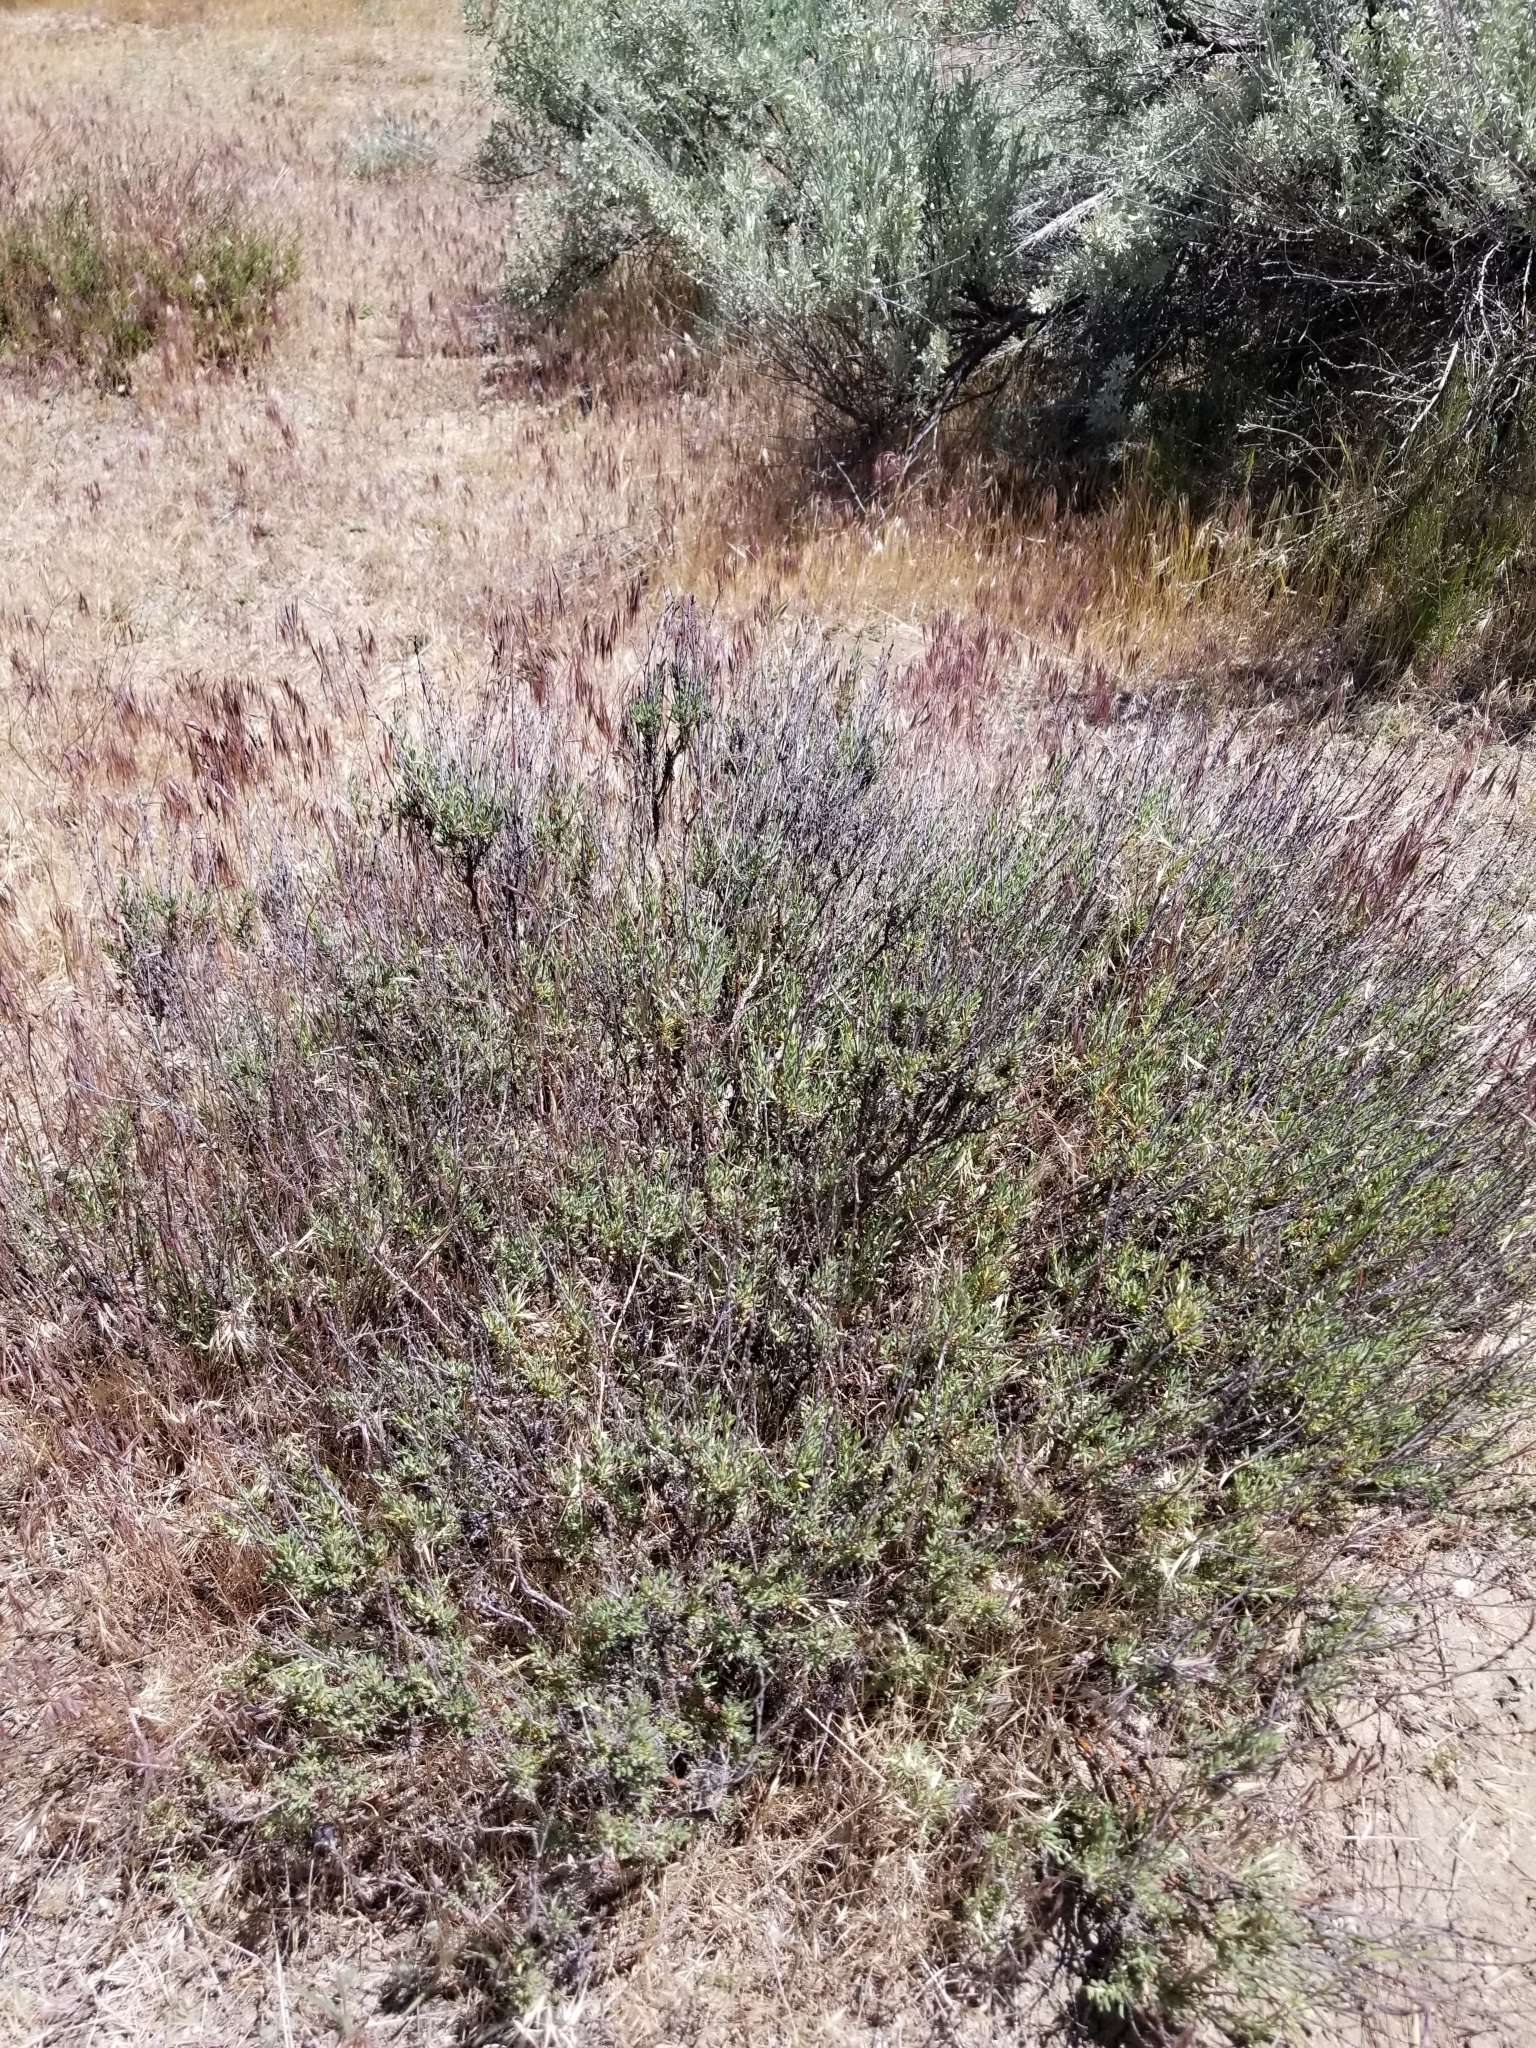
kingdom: Plantae
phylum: Tracheophyta
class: Magnoliopsida
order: Caryophyllales
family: Polygonaceae
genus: Eriogonum
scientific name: Eriogonum fasciculatum
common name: California wild buckwheat
